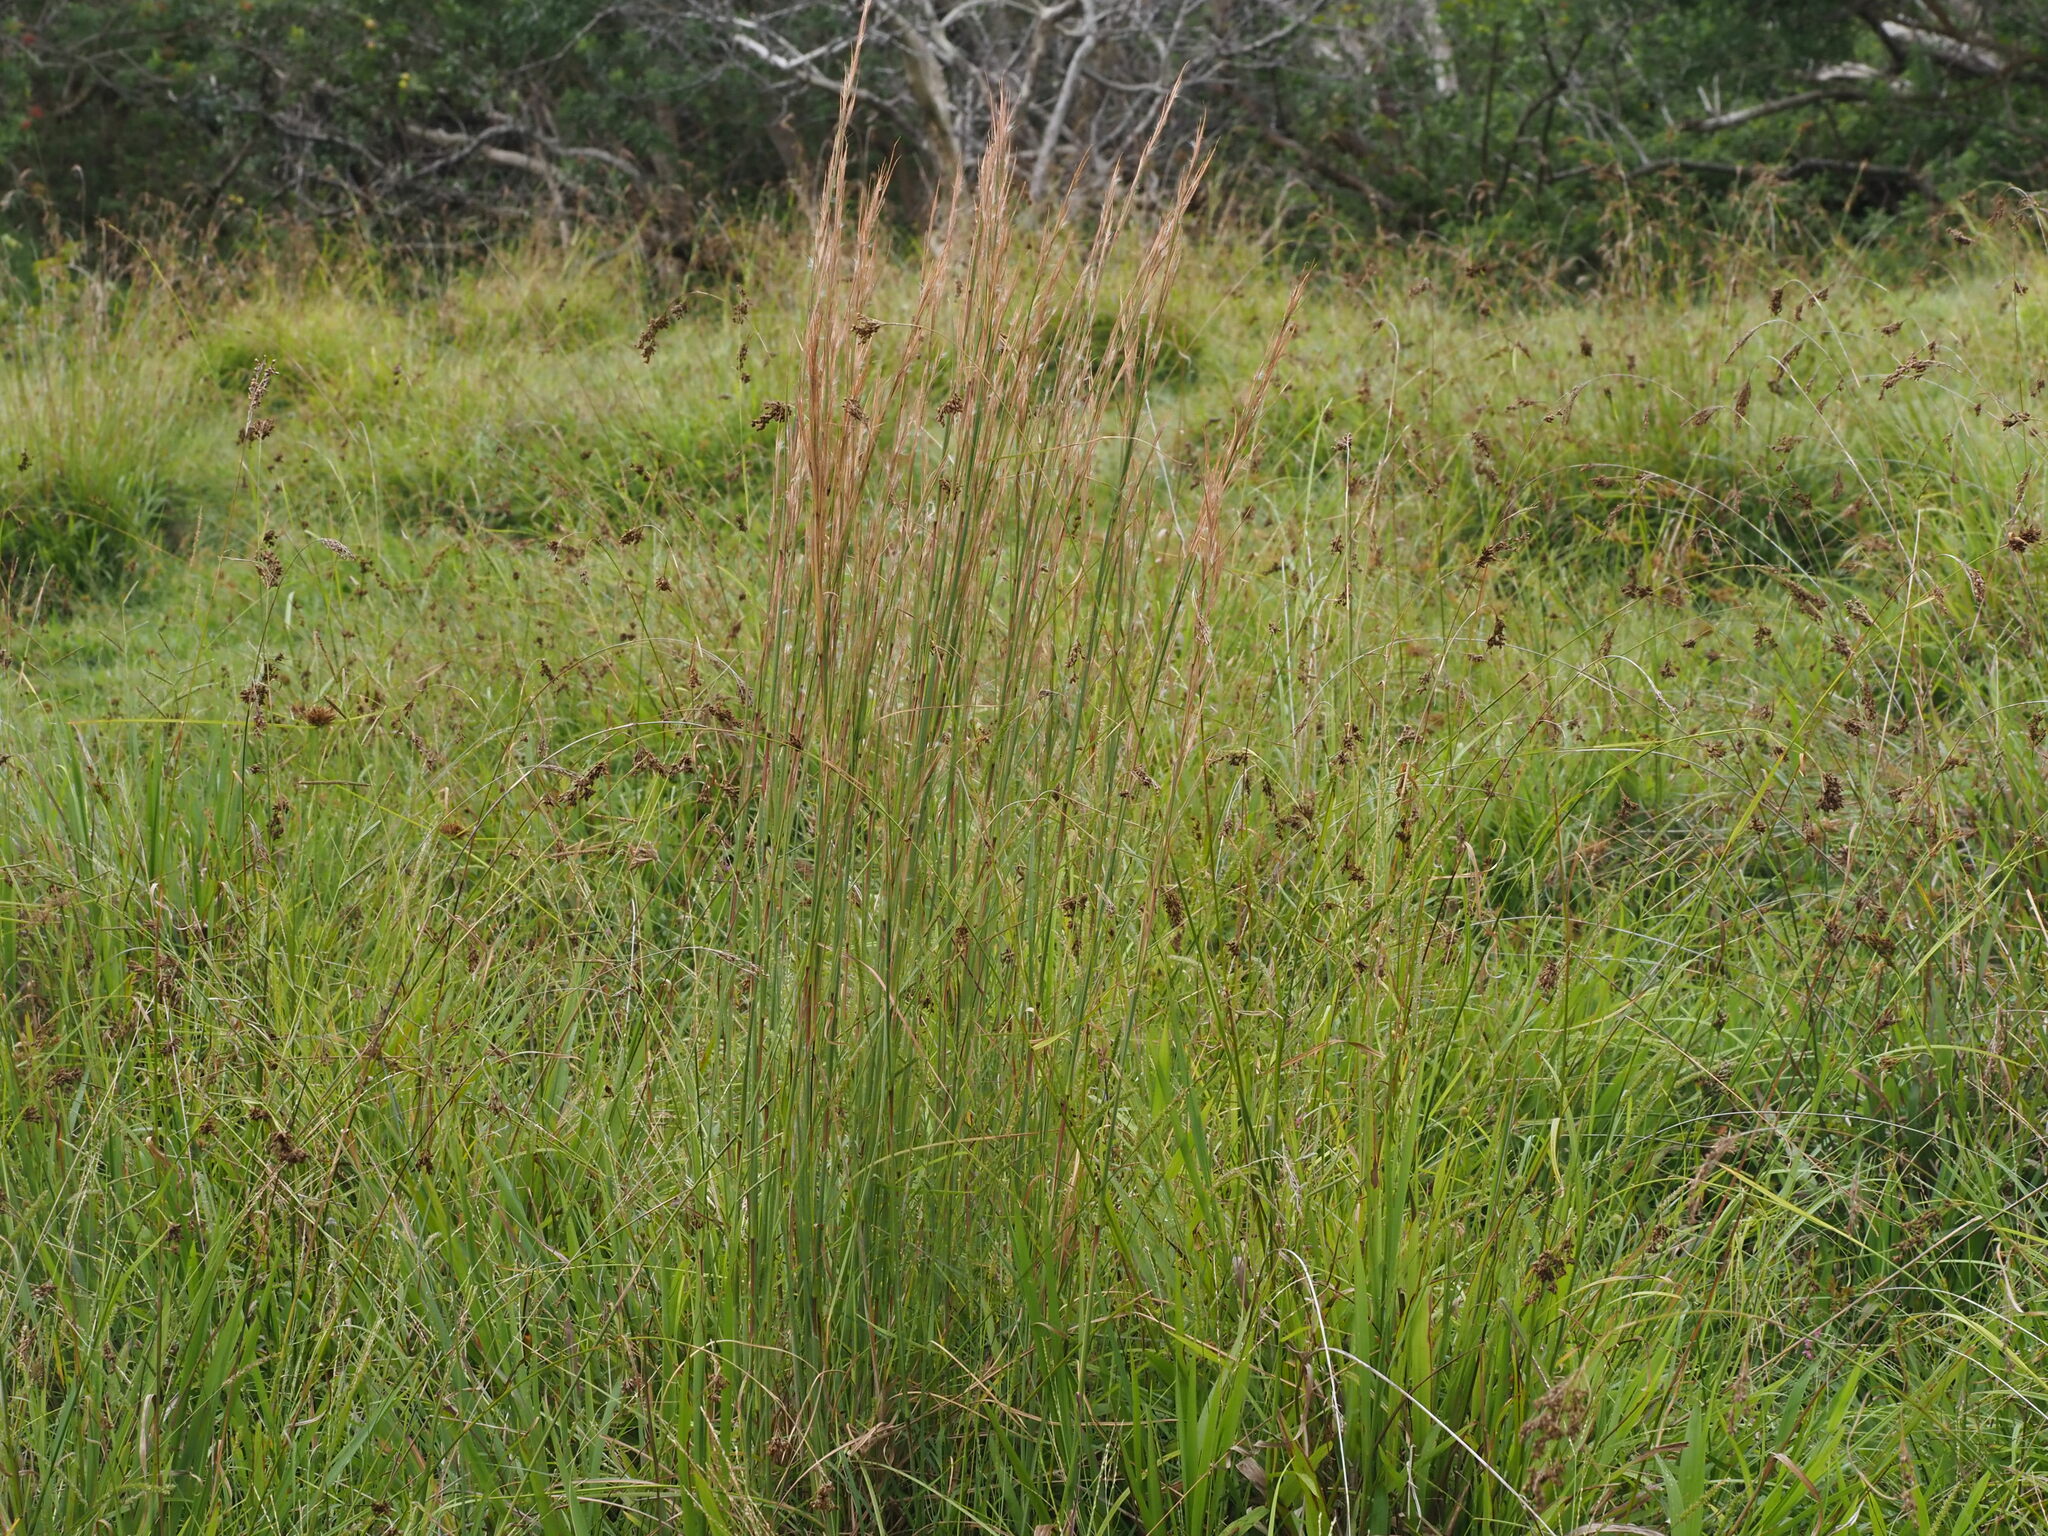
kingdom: Plantae
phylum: Tracheophyta
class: Liliopsida
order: Poales
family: Poaceae
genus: Andropogon
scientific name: Andropogon virginicus
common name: Broomsedge bluestem
